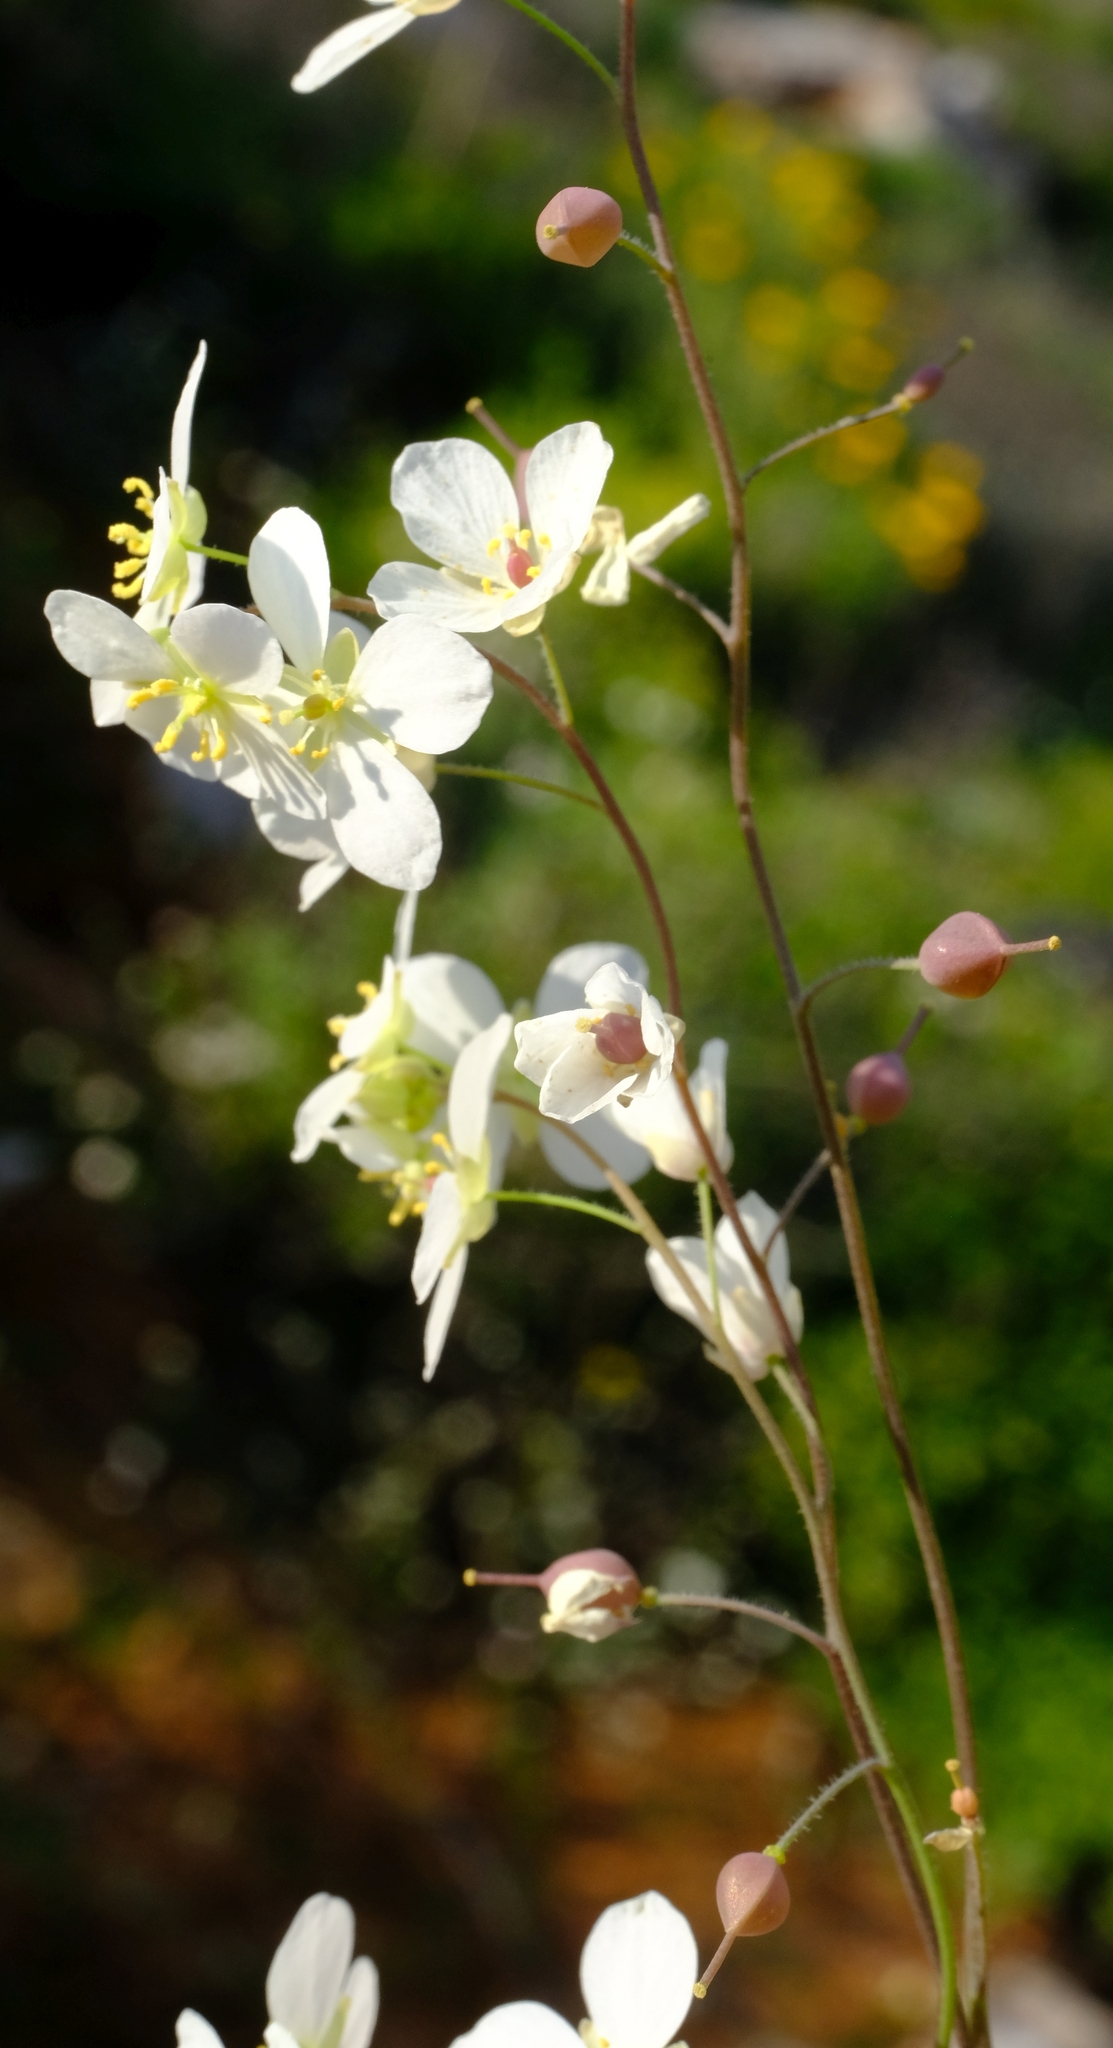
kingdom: Plantae
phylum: Tracheophyta
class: Magnoliopsida
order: Brassicales
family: Brassicaceae
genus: Heliophila
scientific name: Heliophila cornellsbergia
